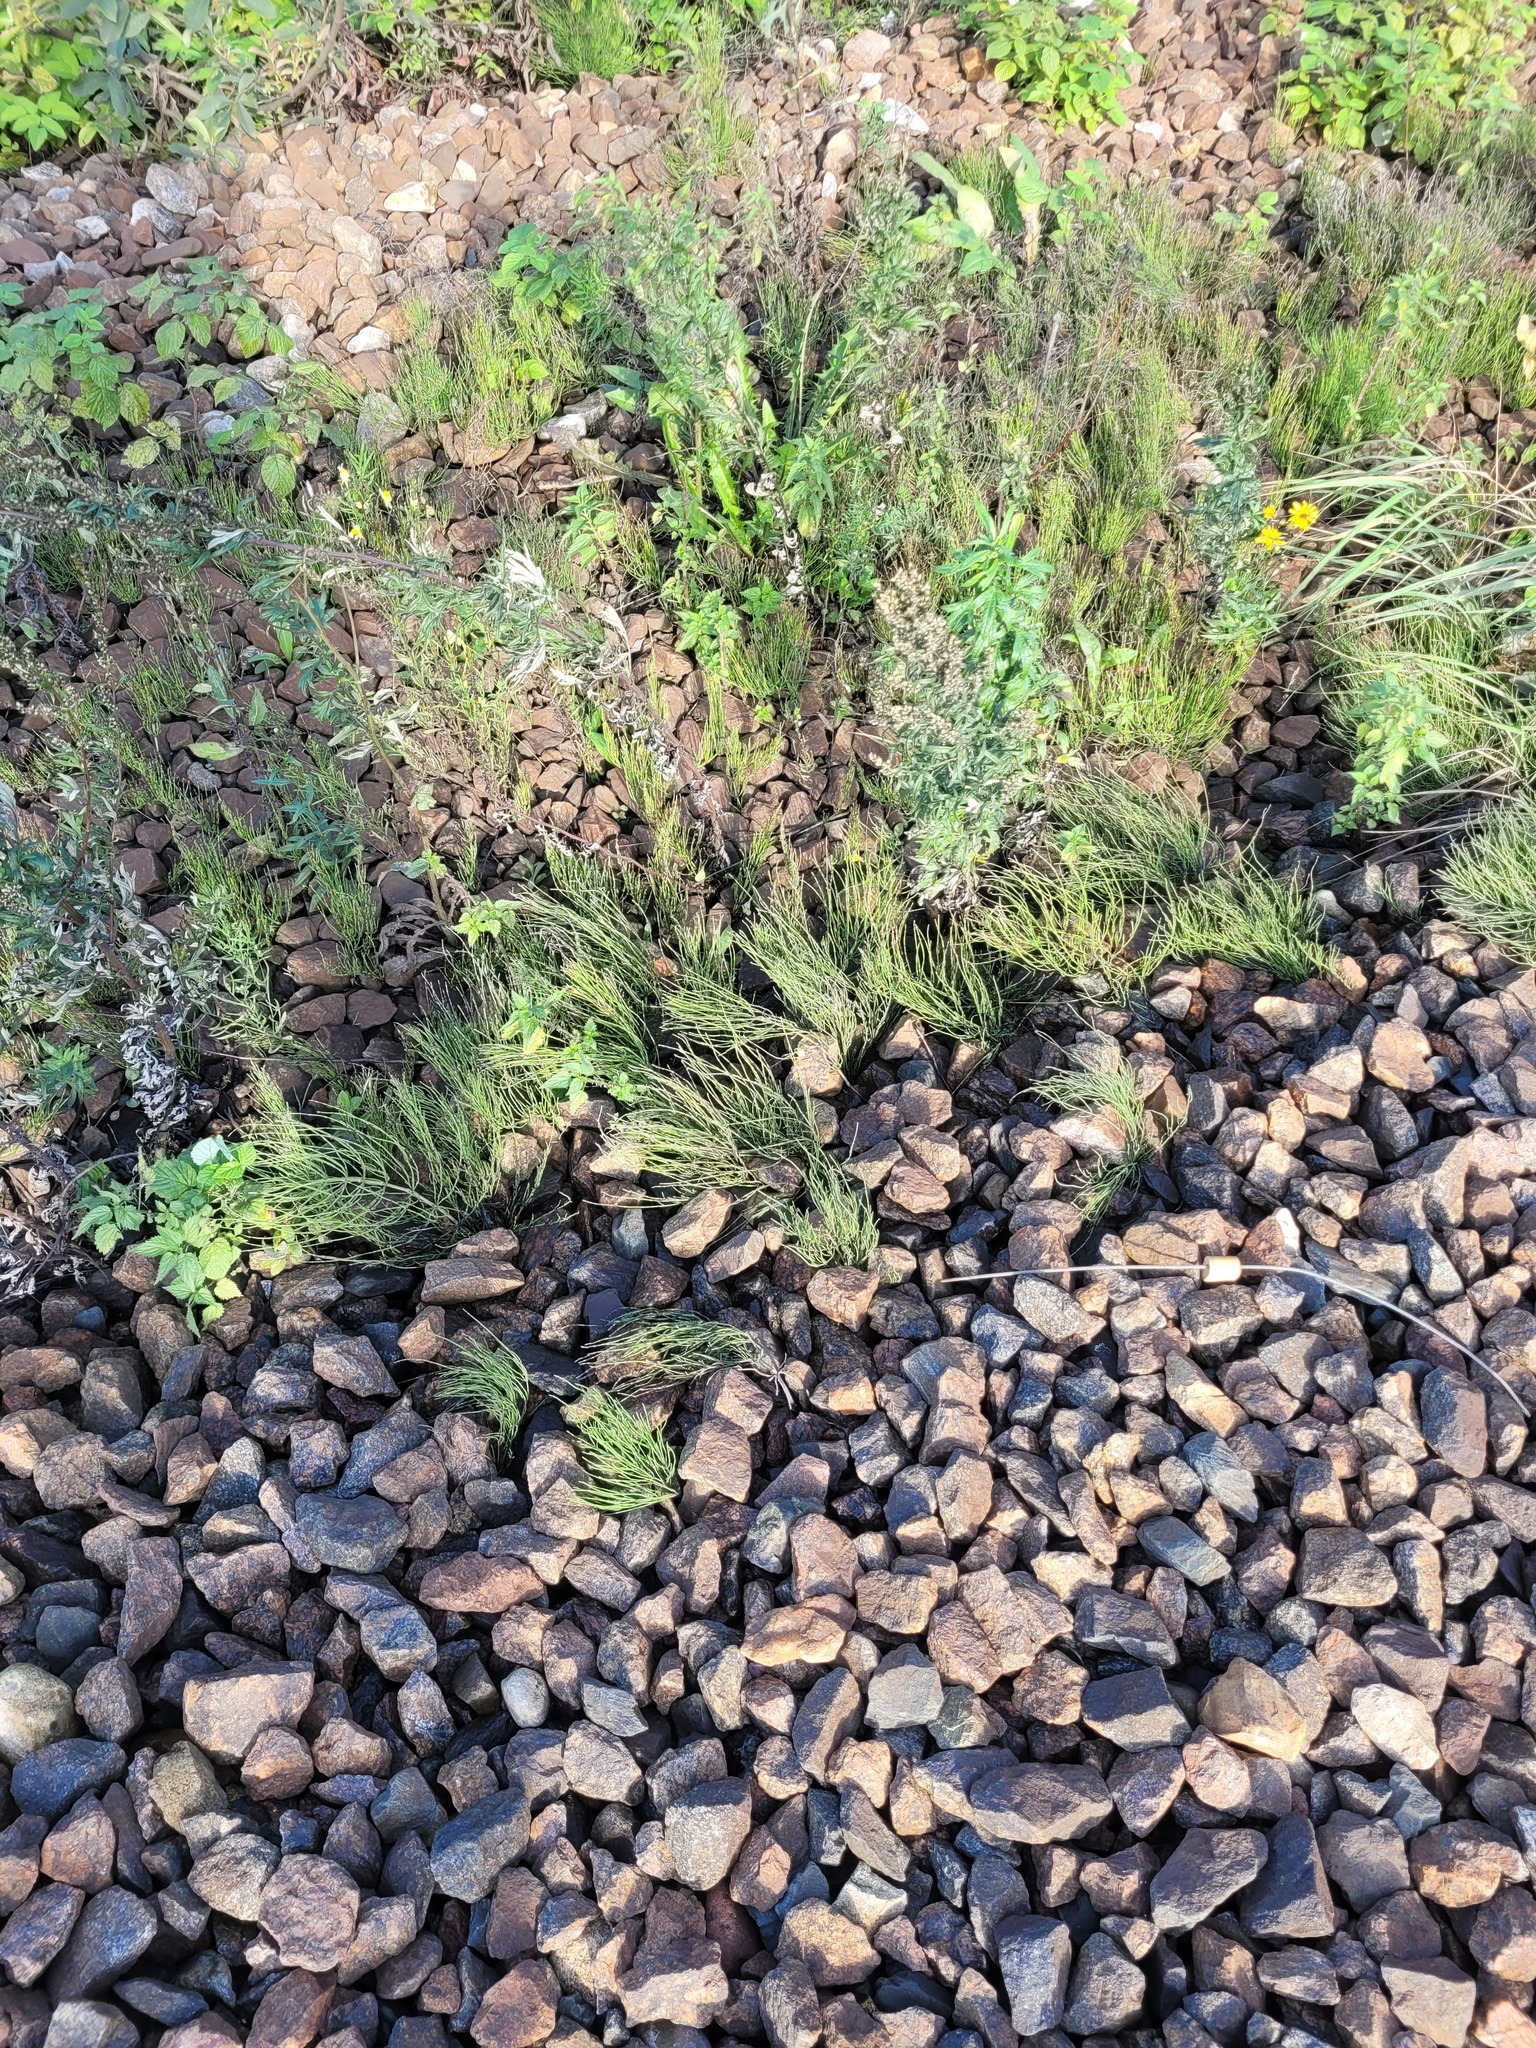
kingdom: Plantae
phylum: Tracheophyta
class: Polypodiopsida
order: Equisetales
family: Equisetaceae
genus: Equisetum
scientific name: Equisetum arvense
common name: Field horsetail
